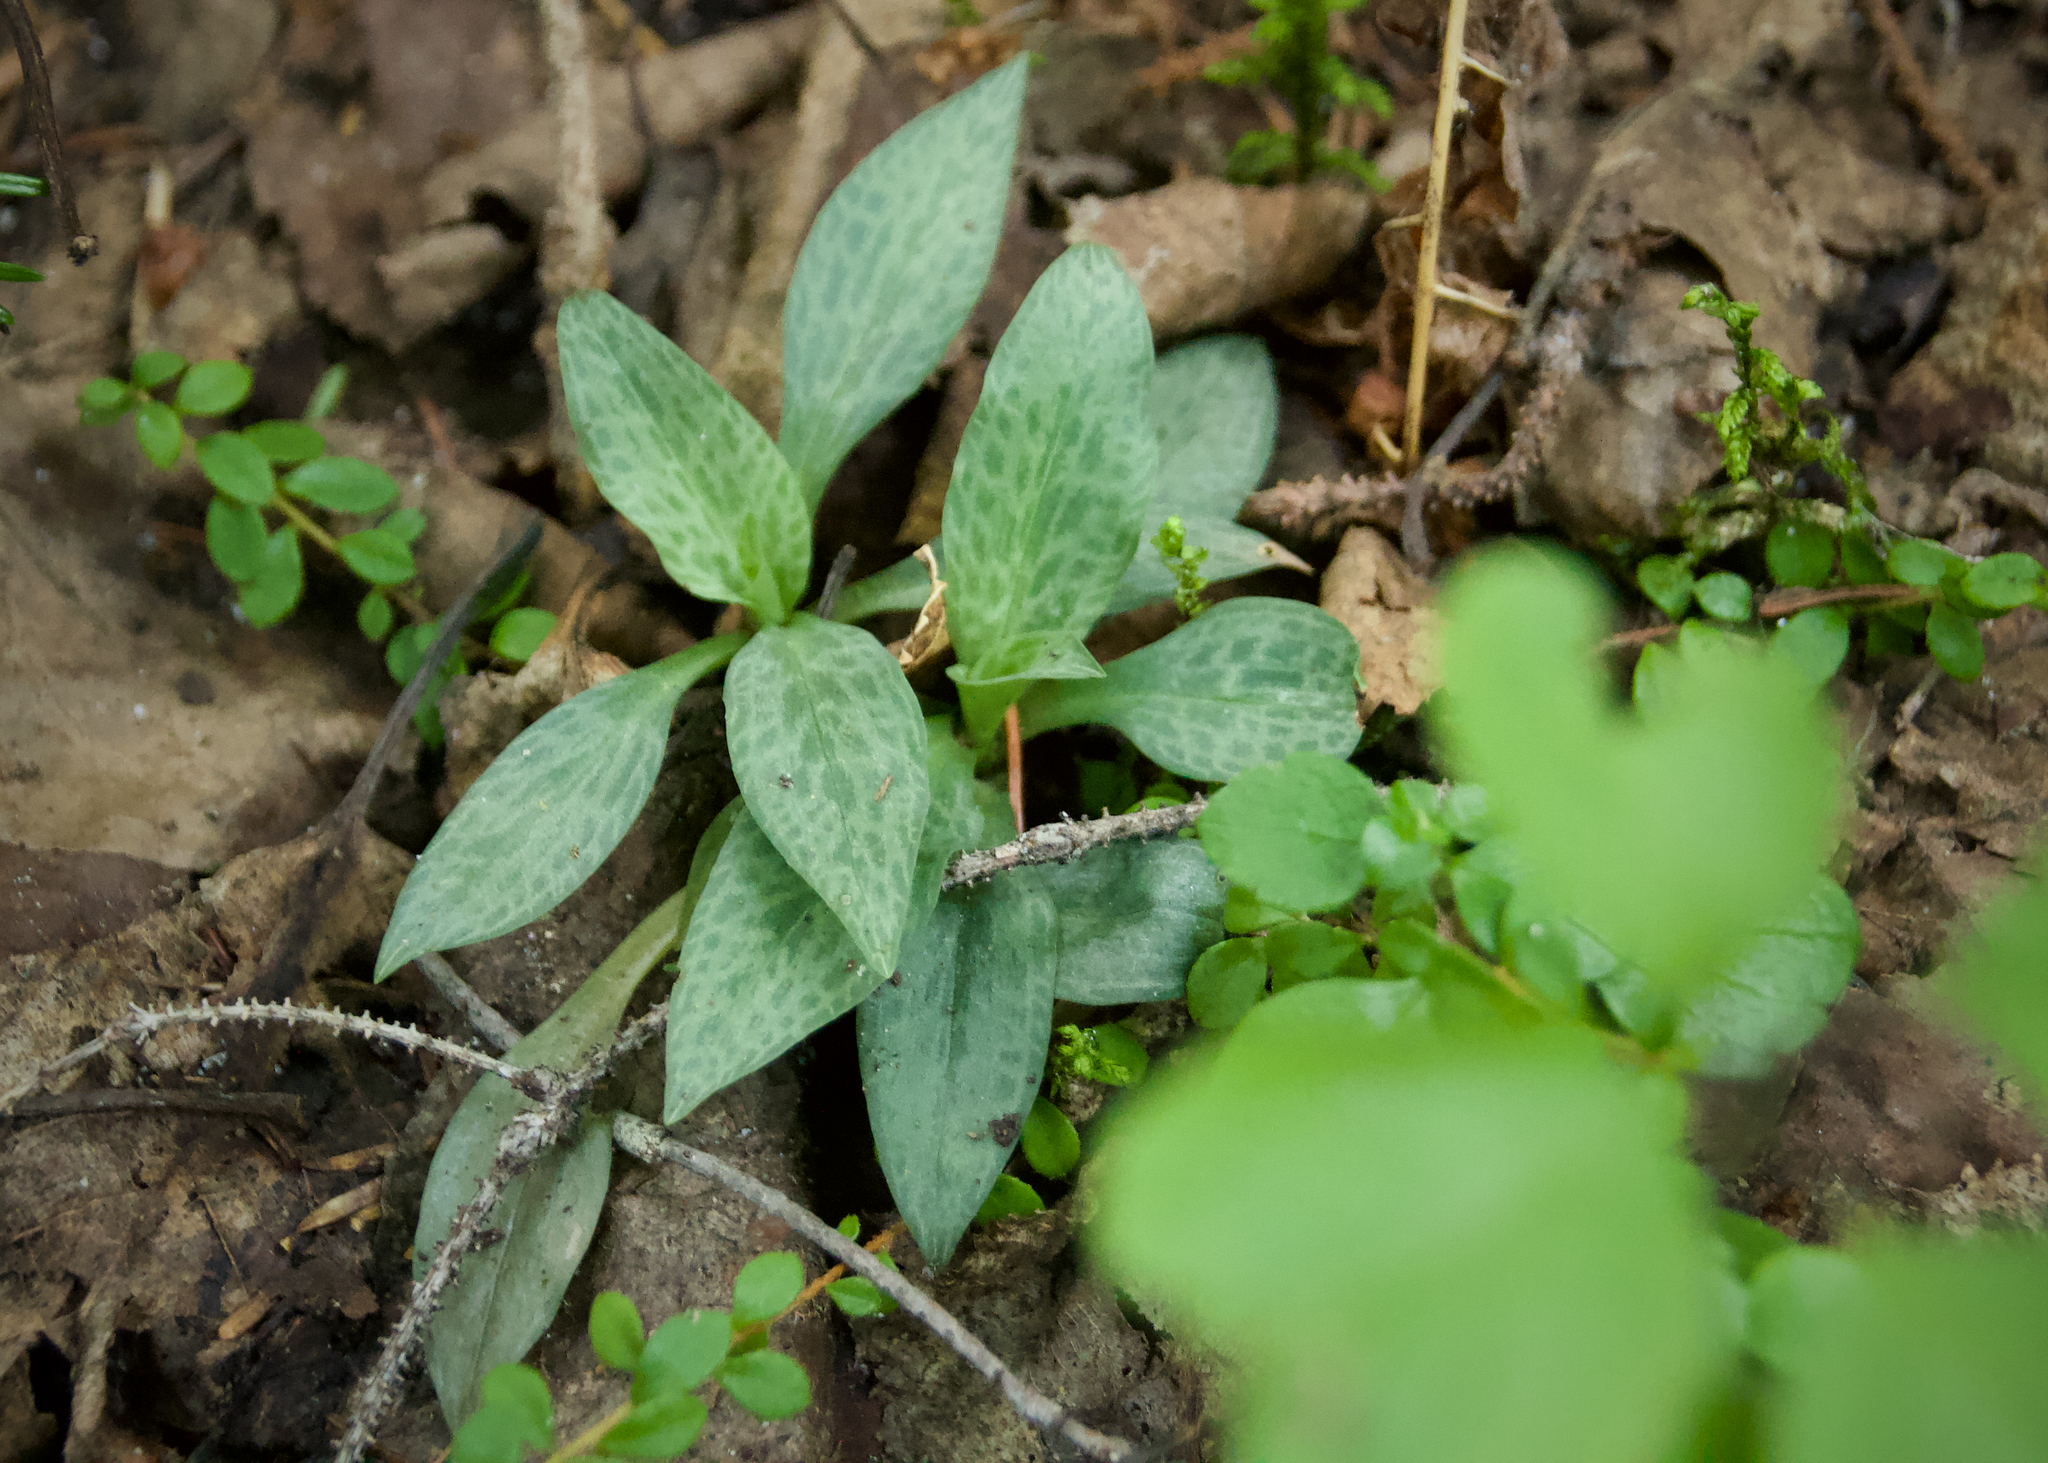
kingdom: Plantae
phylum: Tracheophyta
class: Liliopsida
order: Asparagales
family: Orchidaceae
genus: Goodyera
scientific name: Goodyera tesselata
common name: Checkered rattlesnake-plantain
